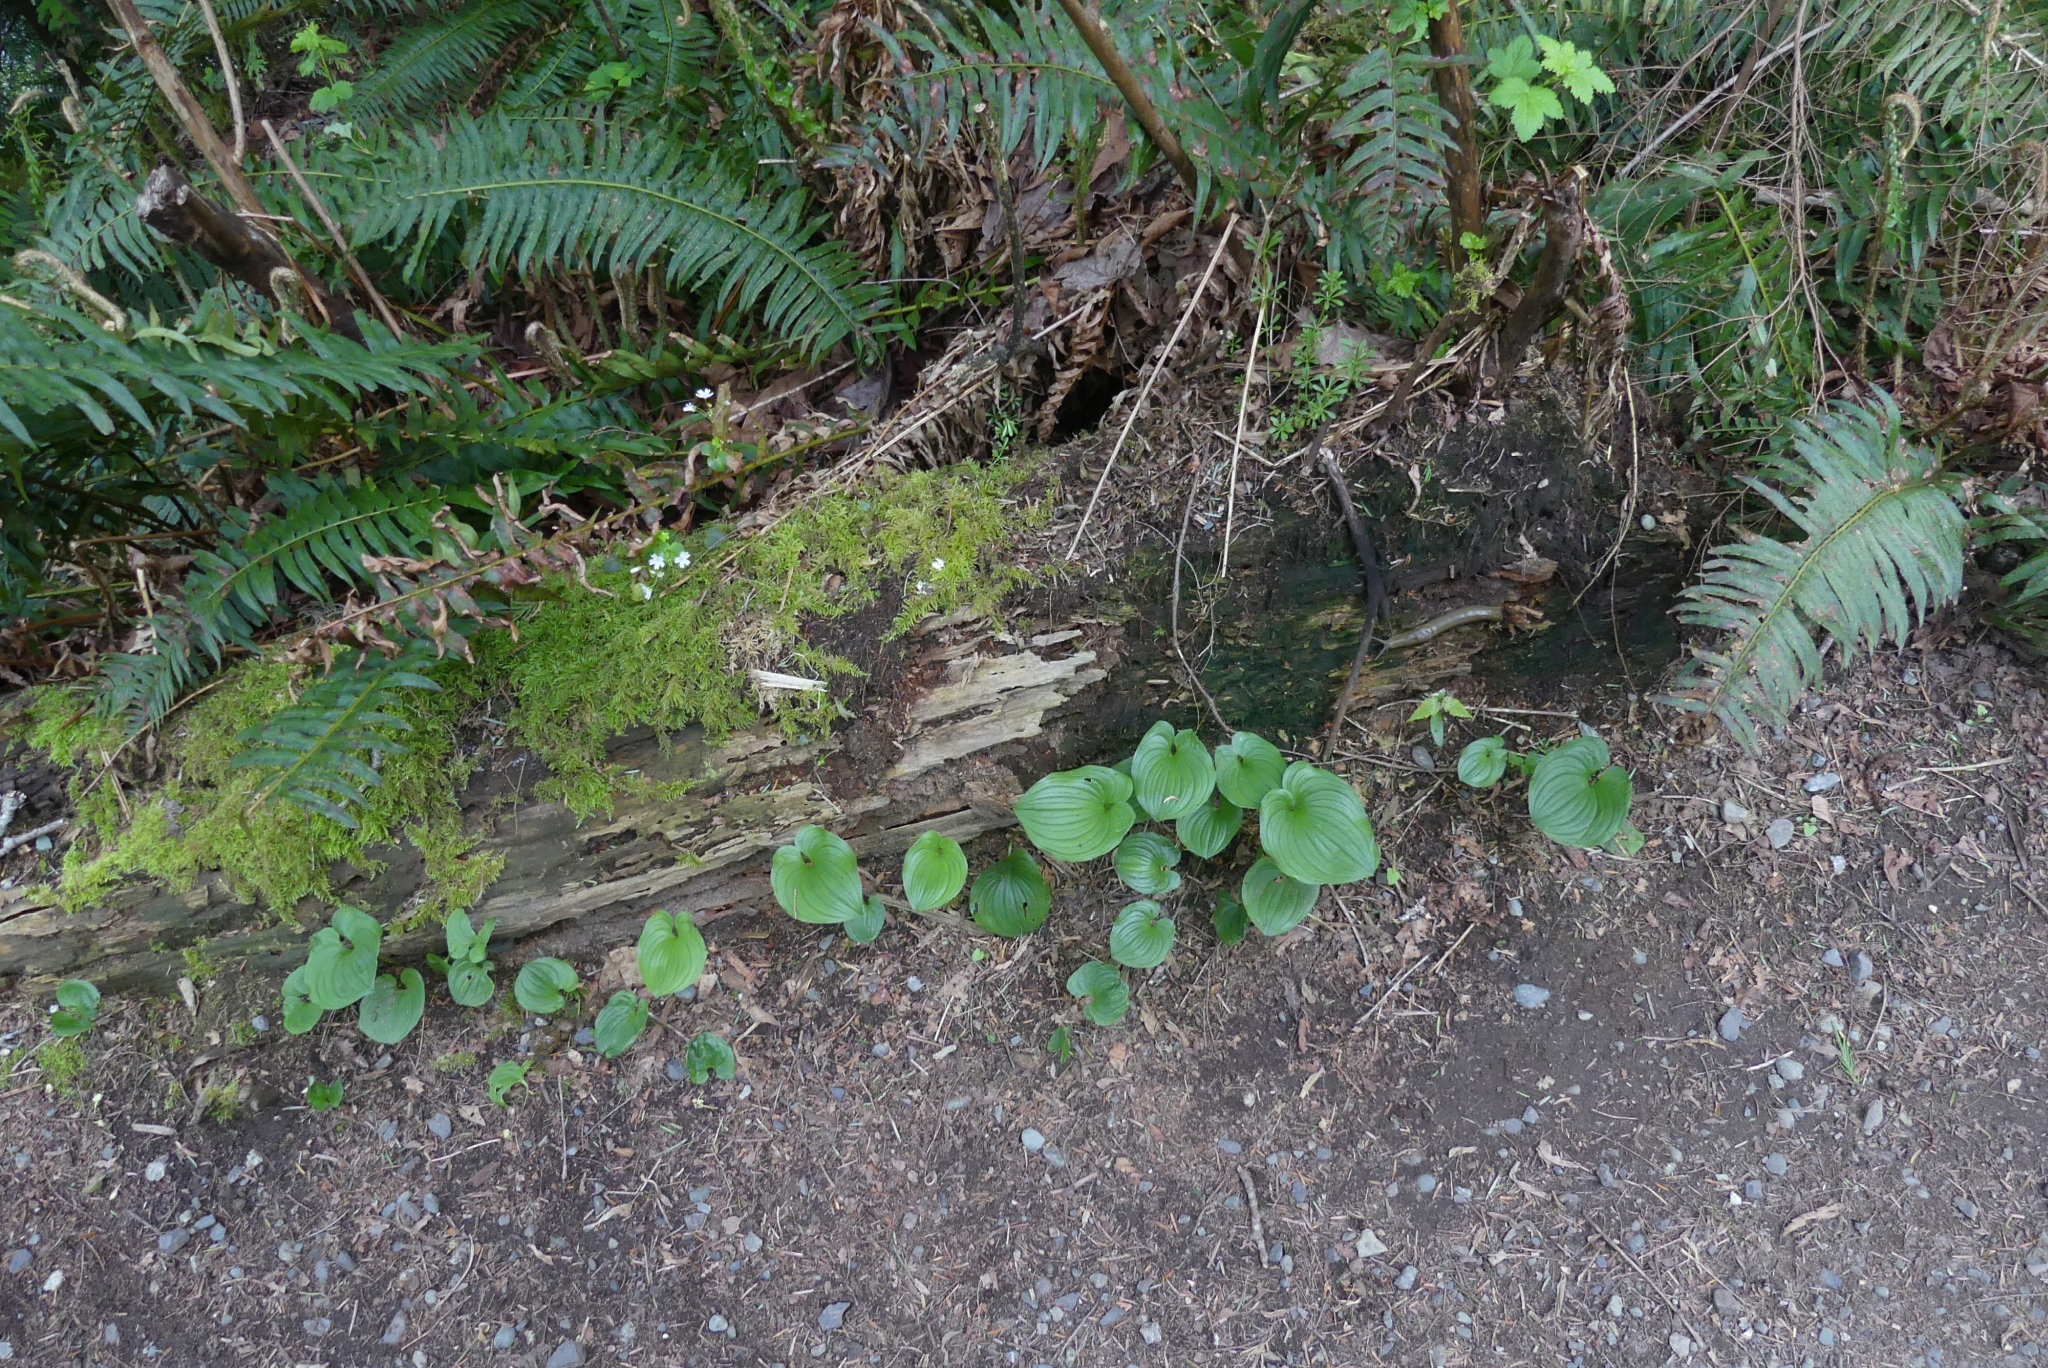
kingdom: Plantae
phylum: Tracheophyta
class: Liliopsida
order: Asparagales
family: Asparagaceae
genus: Maianthemum
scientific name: Maianthemum dilatatum
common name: False lily-of-the-valley
